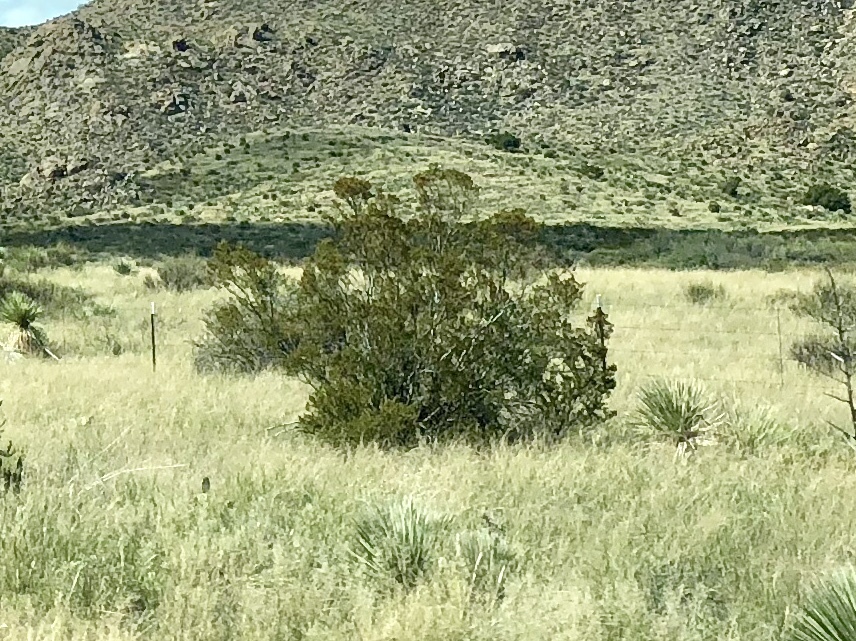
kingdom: Plantae
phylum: Tracheophyta
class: Magnoliopsida
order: Zygophyllales
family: Zygophyllaceae
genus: Larrea
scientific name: Larrea tridentata
